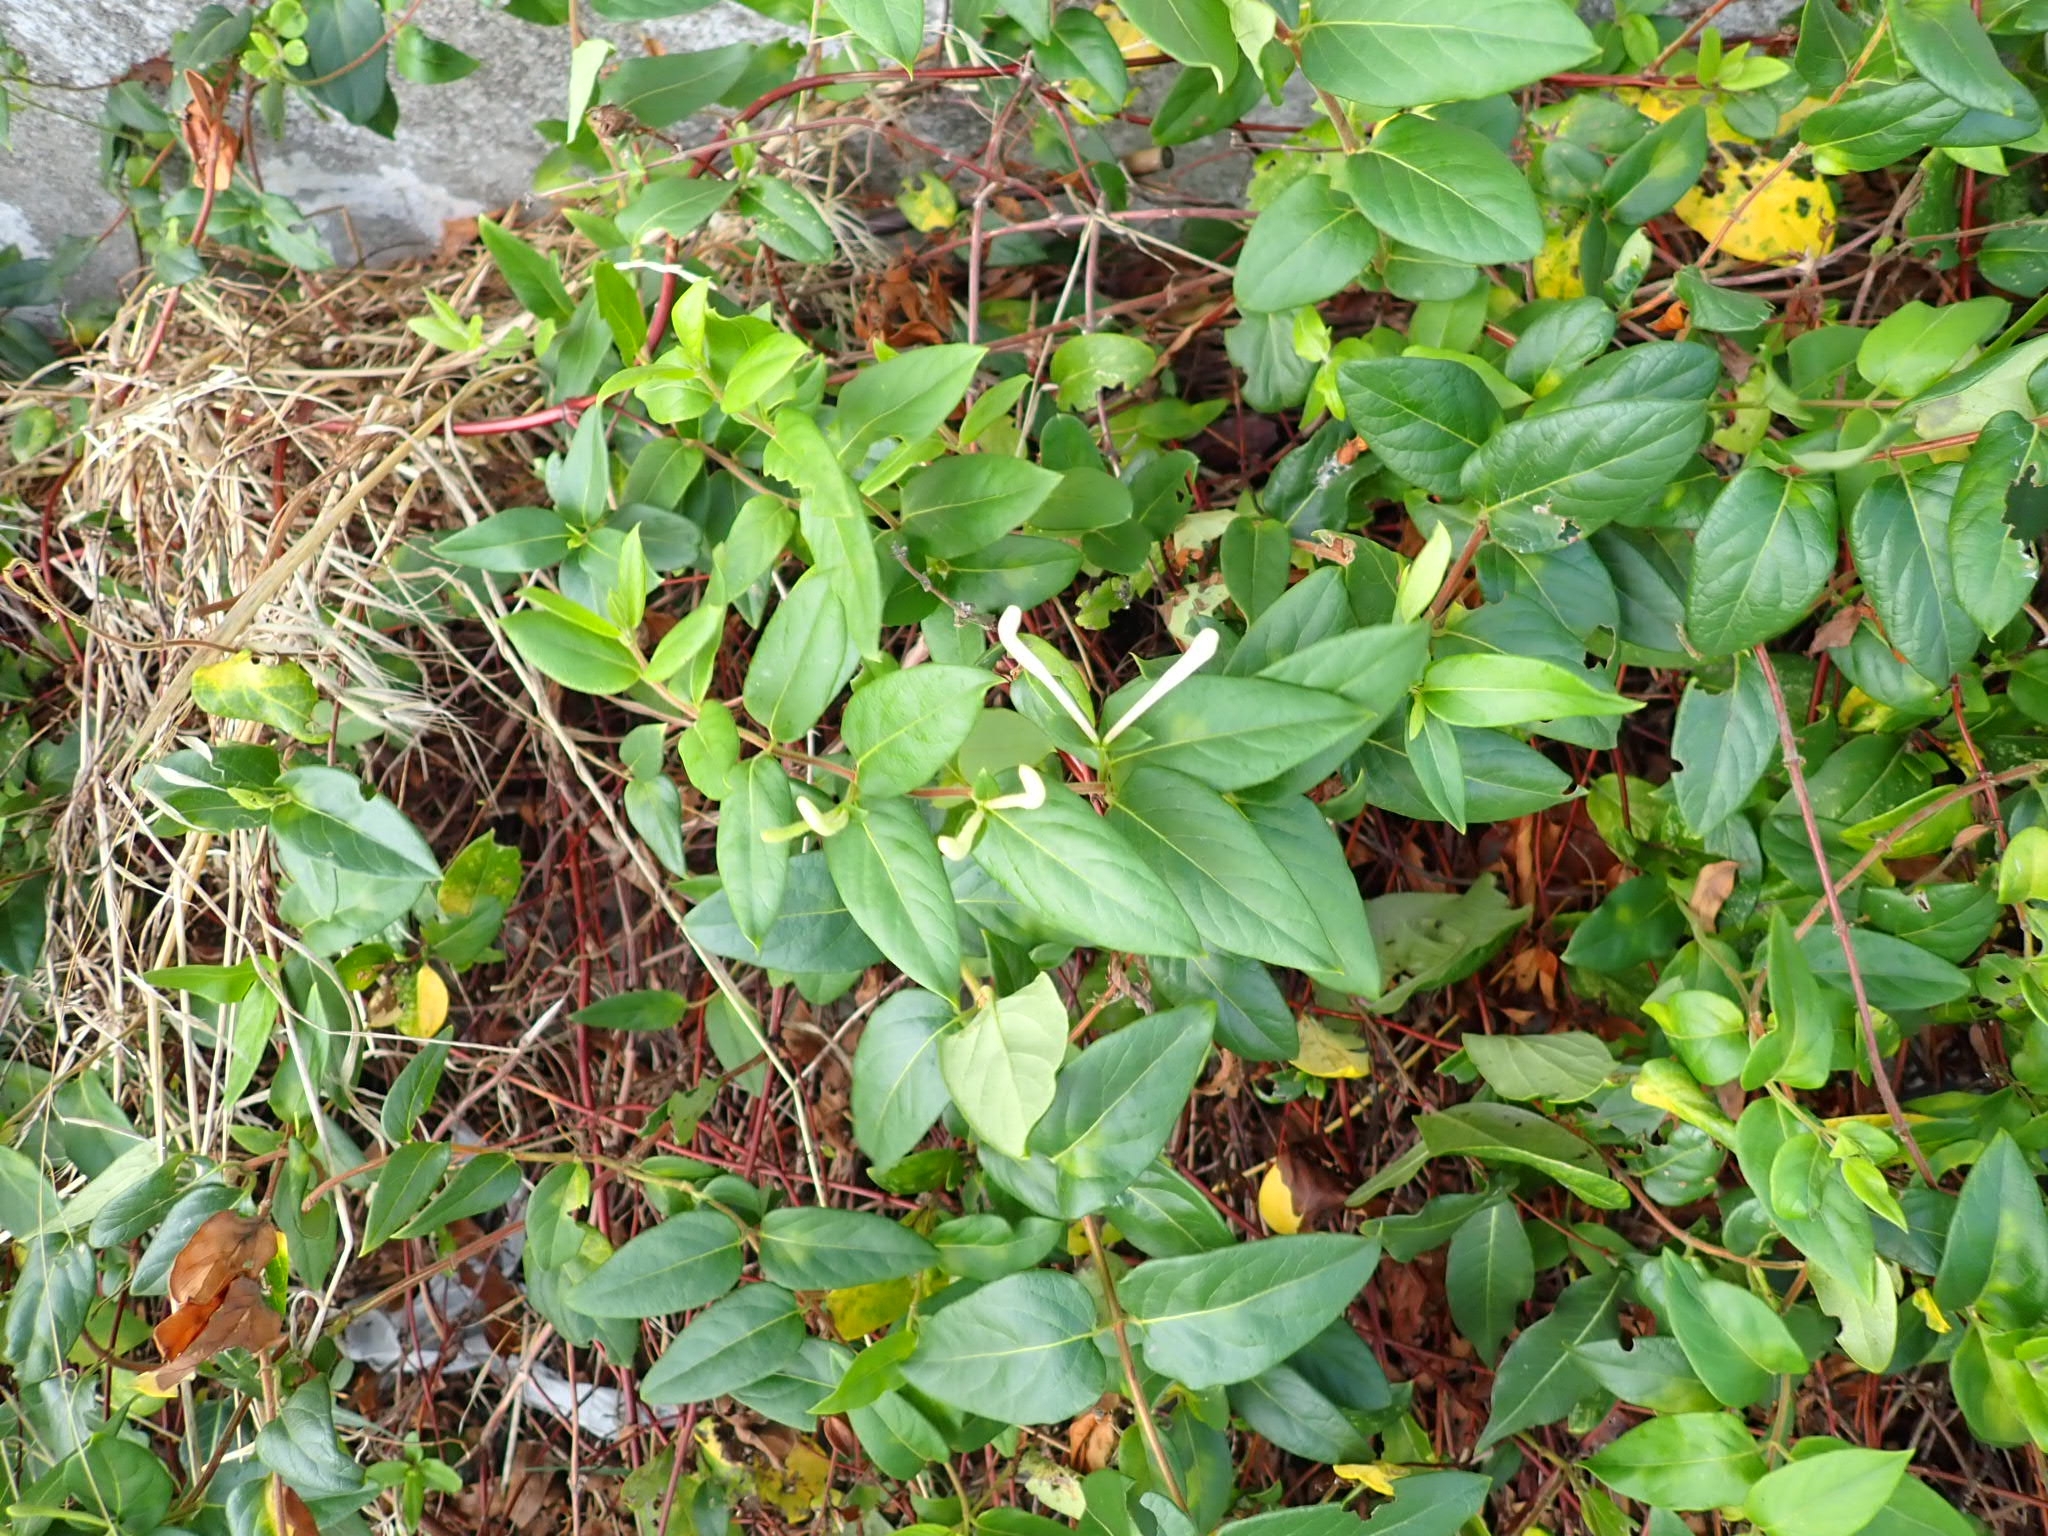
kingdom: Plantae
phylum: Tracheophyta
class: Magnoliopsida
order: Dipsacales
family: Caprifoliaceae
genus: Lonicera
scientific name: Lonicera japonica
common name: Japanese honeysuckle
